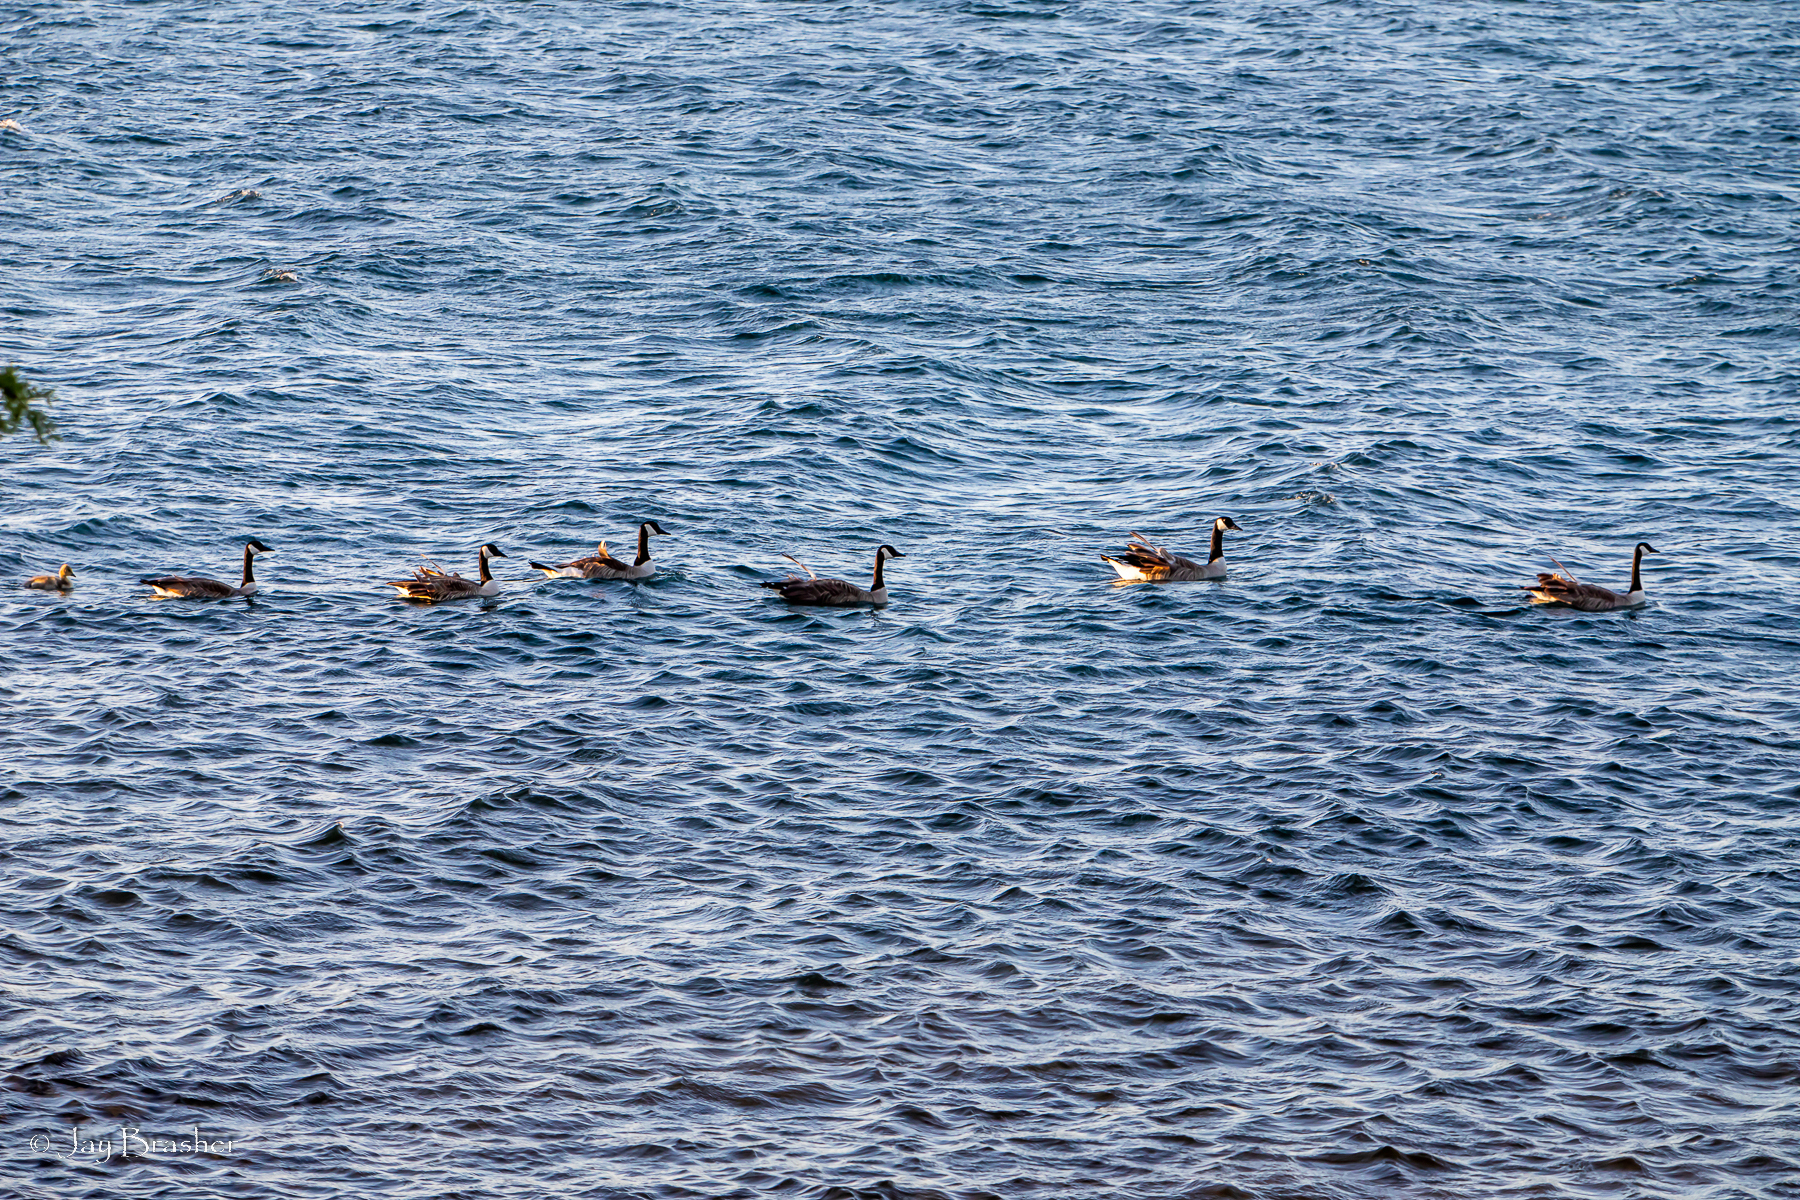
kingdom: Animalia
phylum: Chordata
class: Aves
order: Anseriformes
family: Anatidae
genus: Branta
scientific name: Branta canadensis
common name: Canada goose
